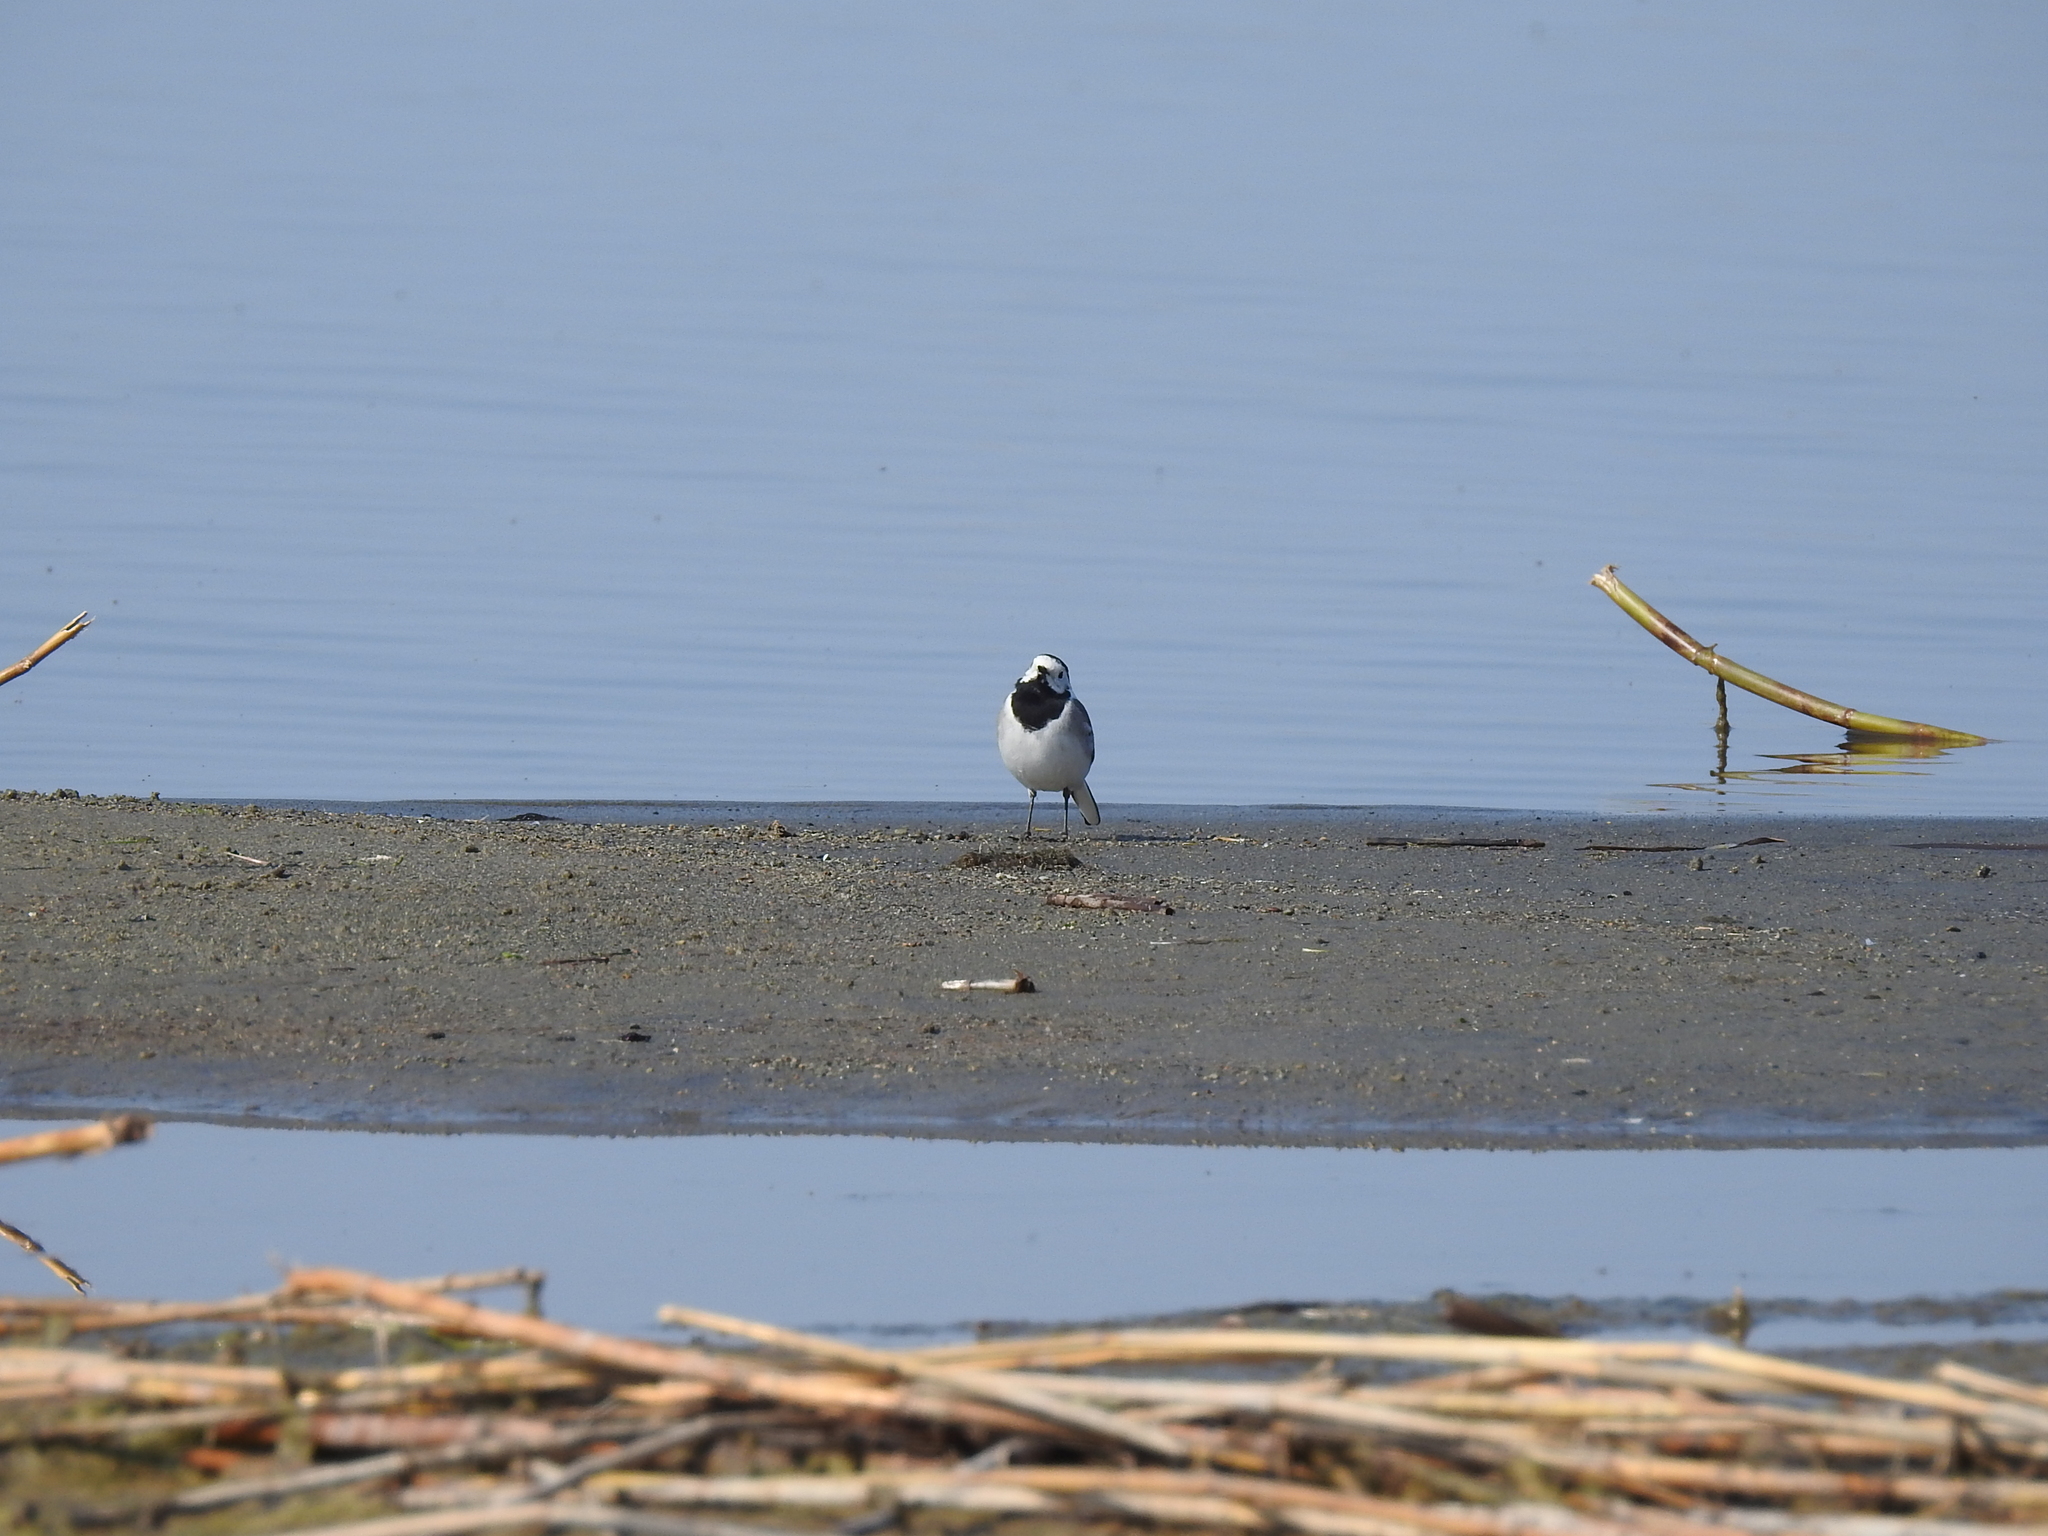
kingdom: Animalia
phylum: Chordata
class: Aves
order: Passeriformes
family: Motacillidae
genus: Motacilla
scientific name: Motacilla alba
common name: White wagtail
